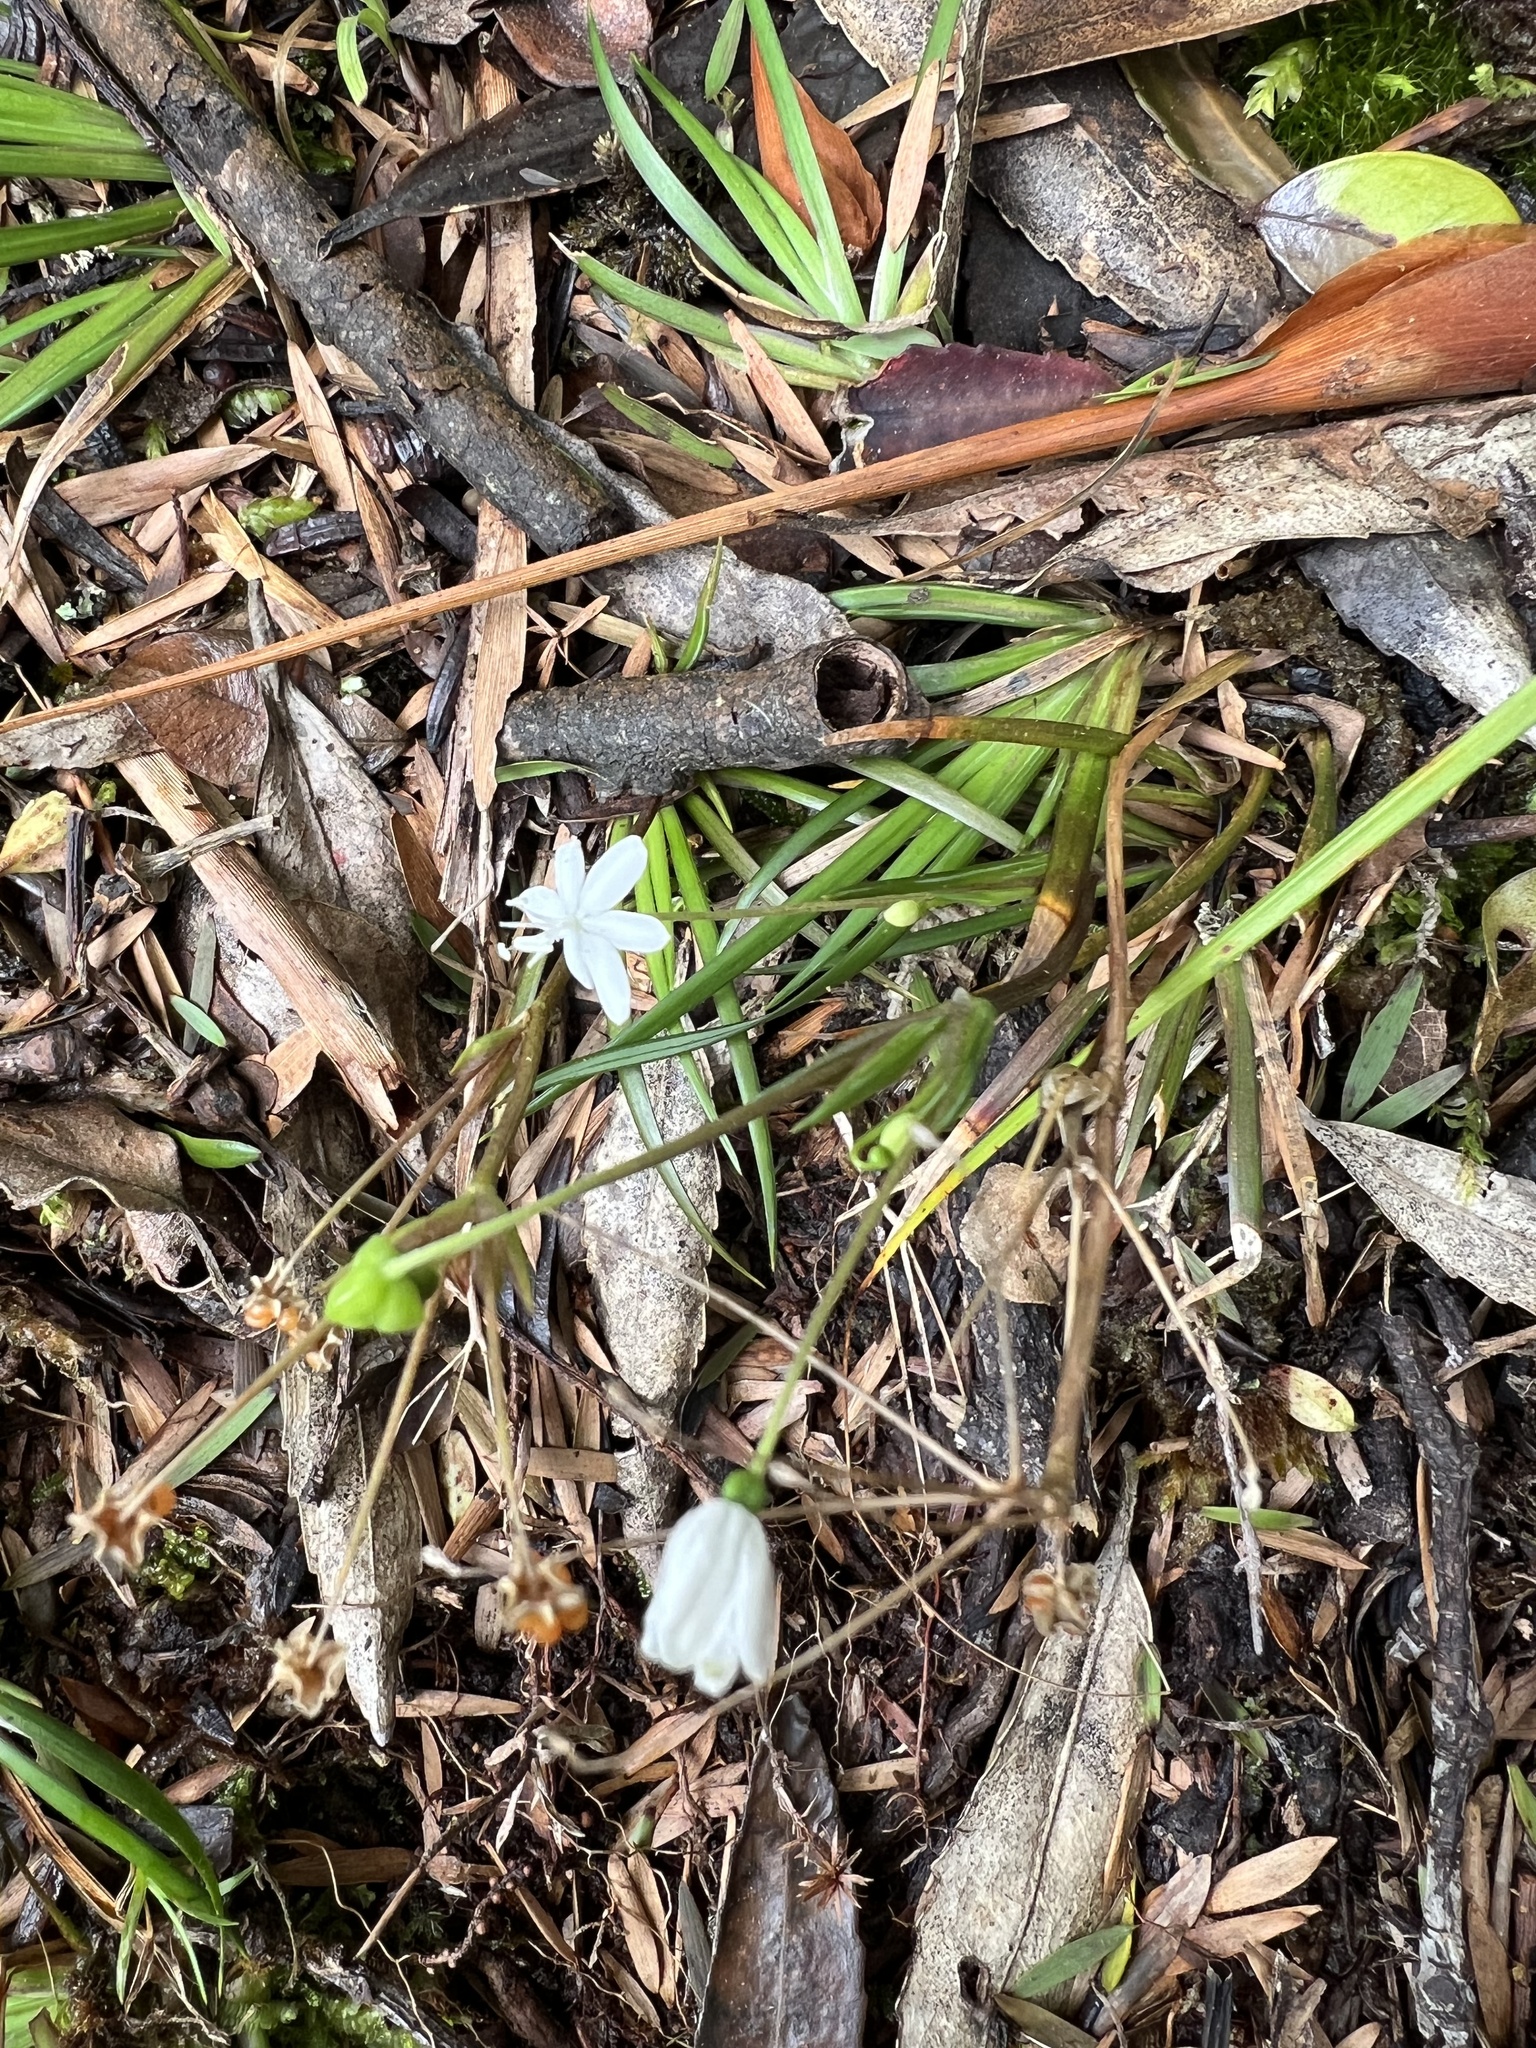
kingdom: Plantae
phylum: Tracheophyta
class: Liliopsida
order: Asparagales
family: Iridaceae
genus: Libertia
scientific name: Libertia micrantha
